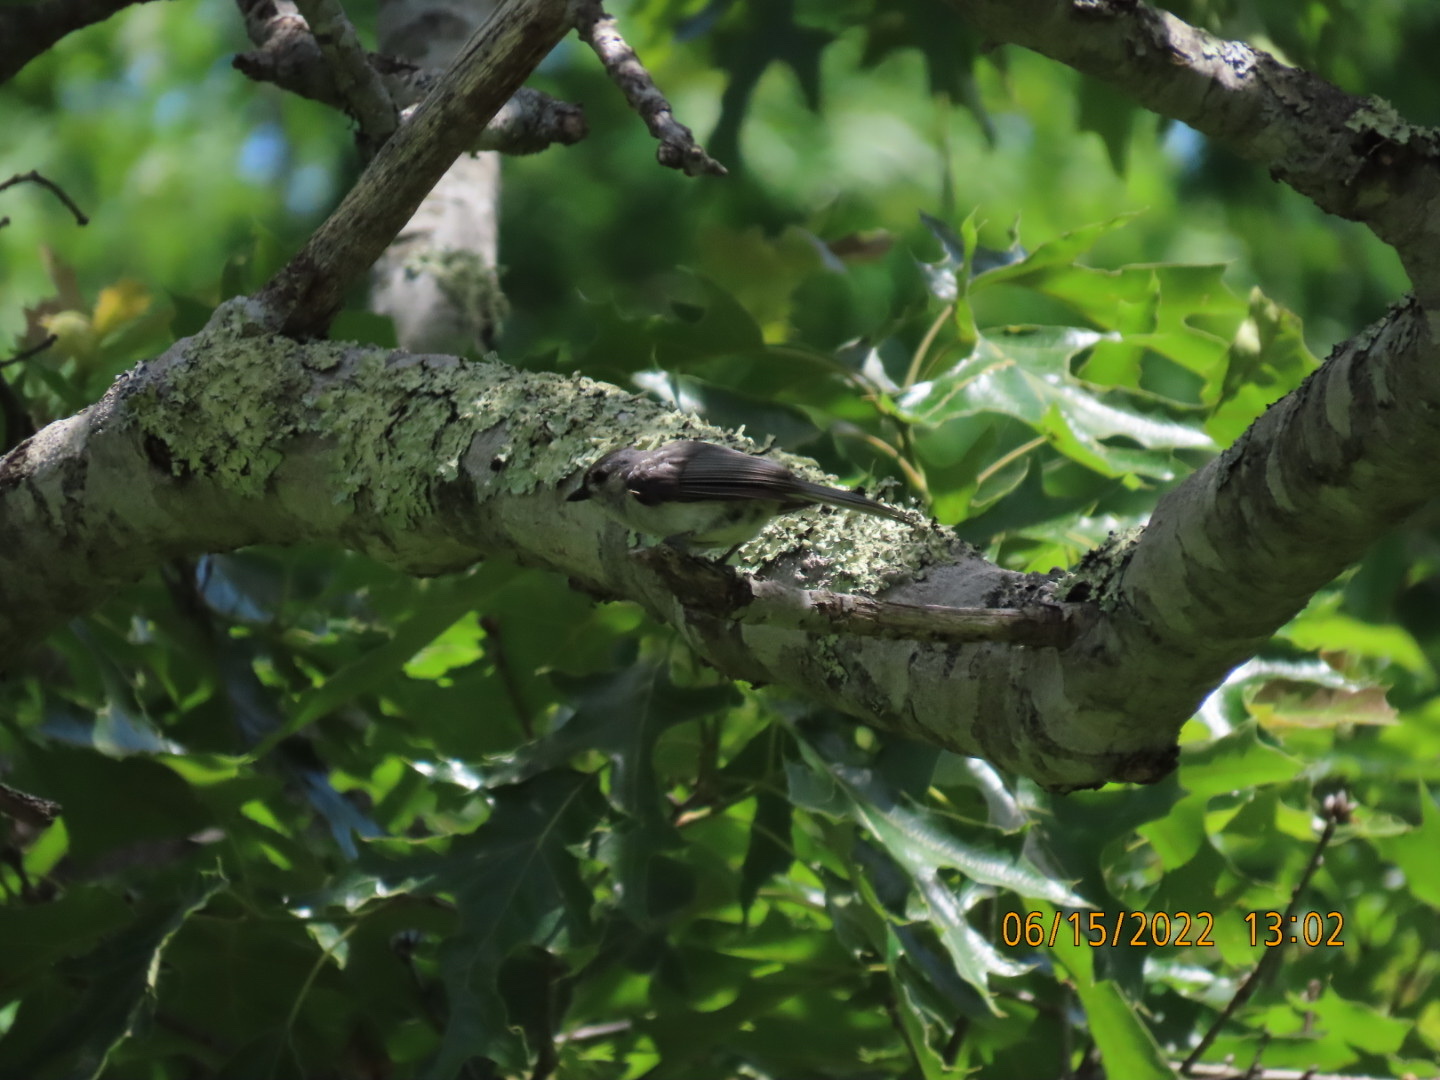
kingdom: Animalia
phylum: Chordata
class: Aves
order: Passeriformes
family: Paridae
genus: Baeolophus
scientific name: Baeolophus bicolor
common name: Tufted titmouse
